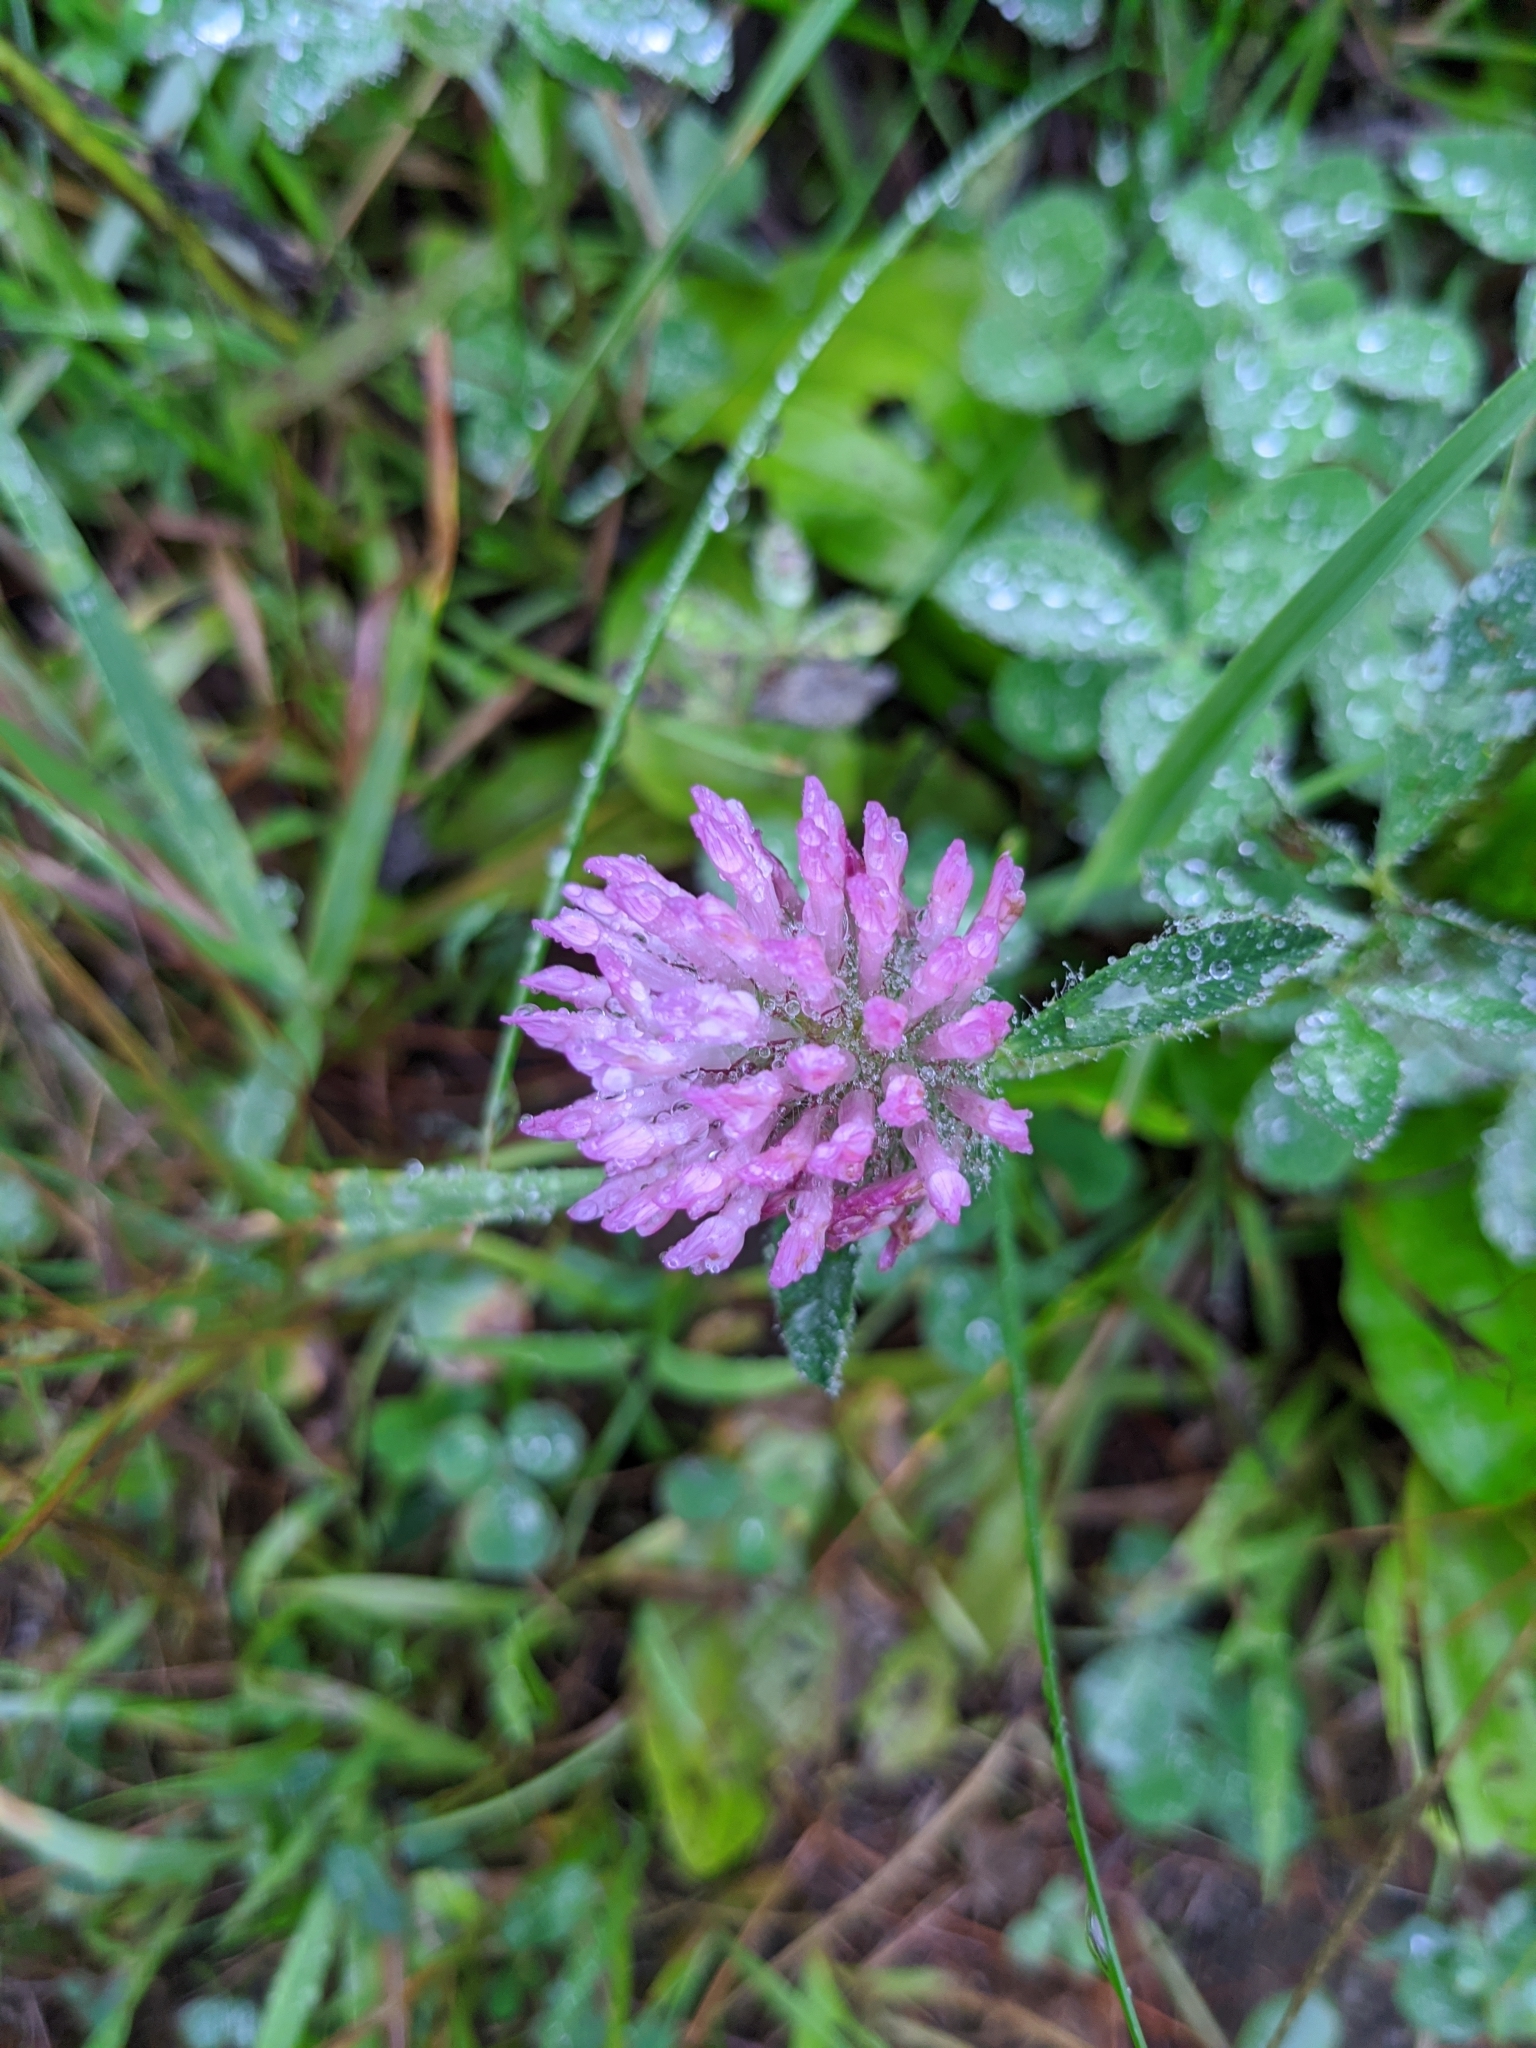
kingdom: Plantae
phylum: Tracheophyta
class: Magnoliopsida
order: Fabales
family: Fabaceae
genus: Trifolium
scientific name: Trifolium pratense
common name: Red clover
